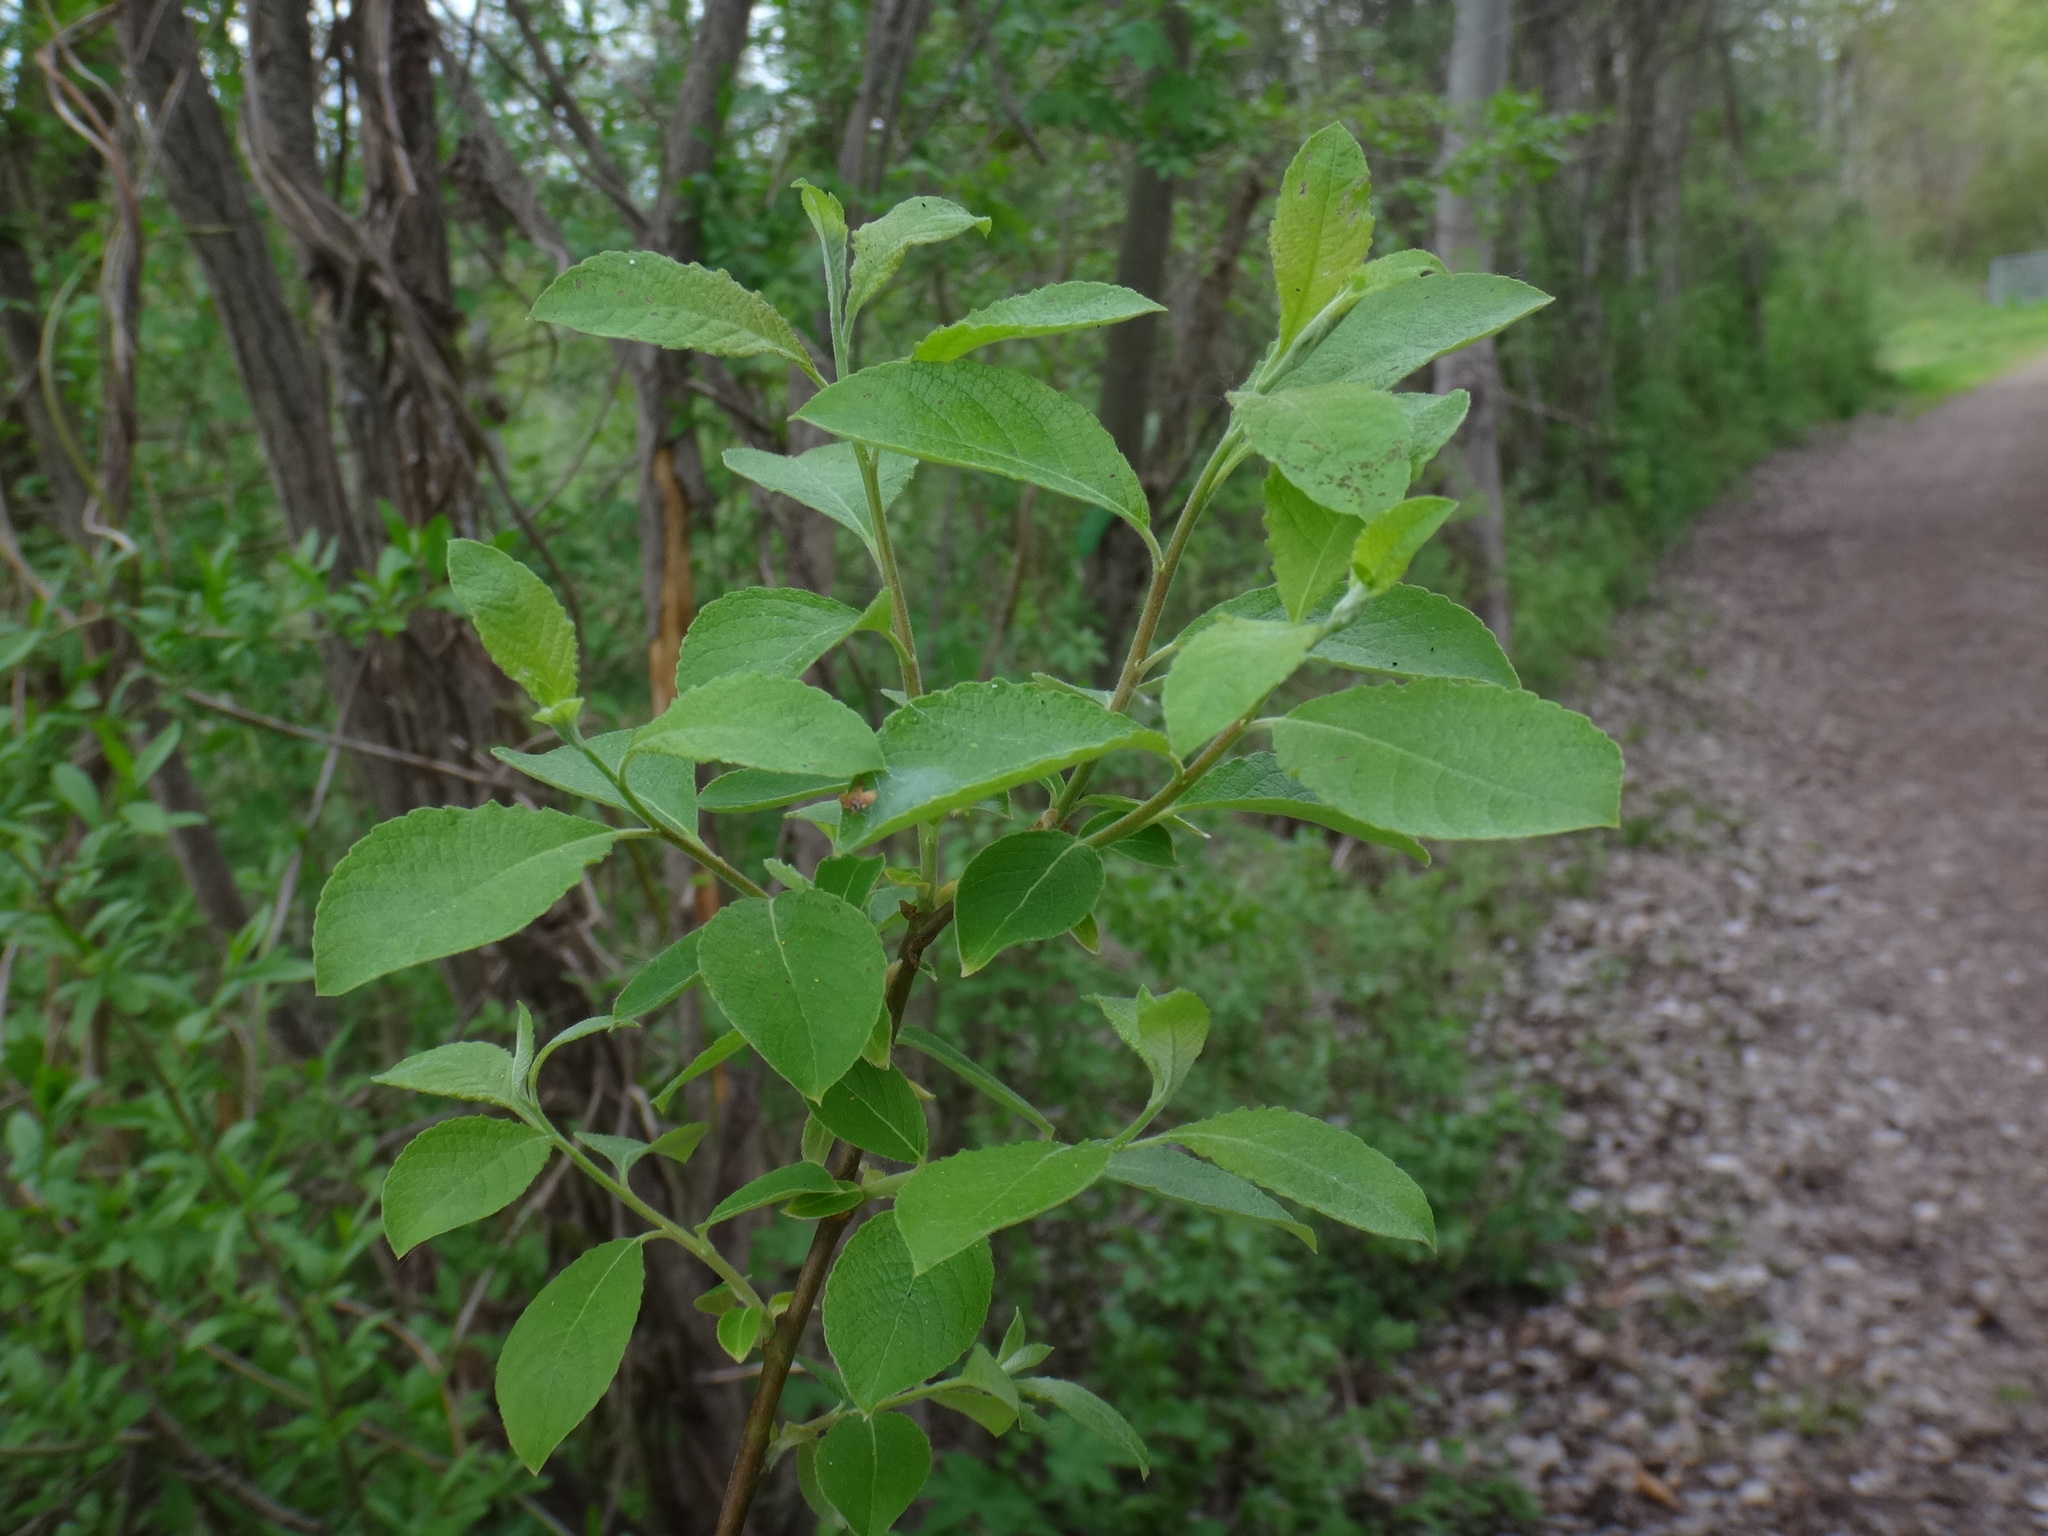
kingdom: Plantae
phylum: Tracheophyta
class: Magnoliopsida
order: Malpighiales
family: Salicaceae
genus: Salix
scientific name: Salix caprea
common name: Goat willow
